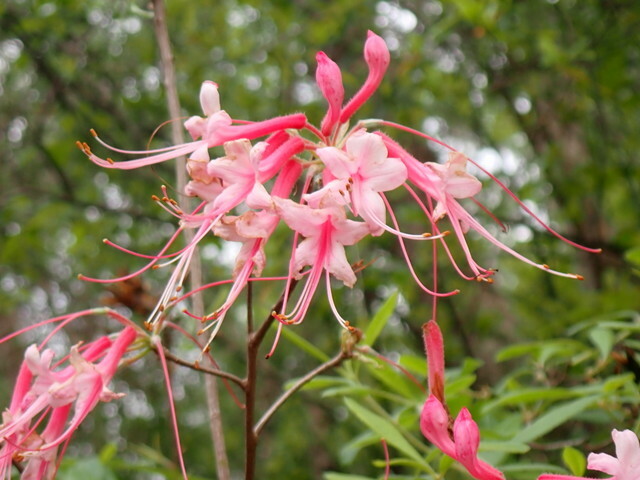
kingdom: Plantae
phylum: Tracheophyta
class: Magnoliopsida
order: Ericales
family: Ericaceae
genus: Rhododendron
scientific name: Rhododendron canescens
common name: Mountain azalea
